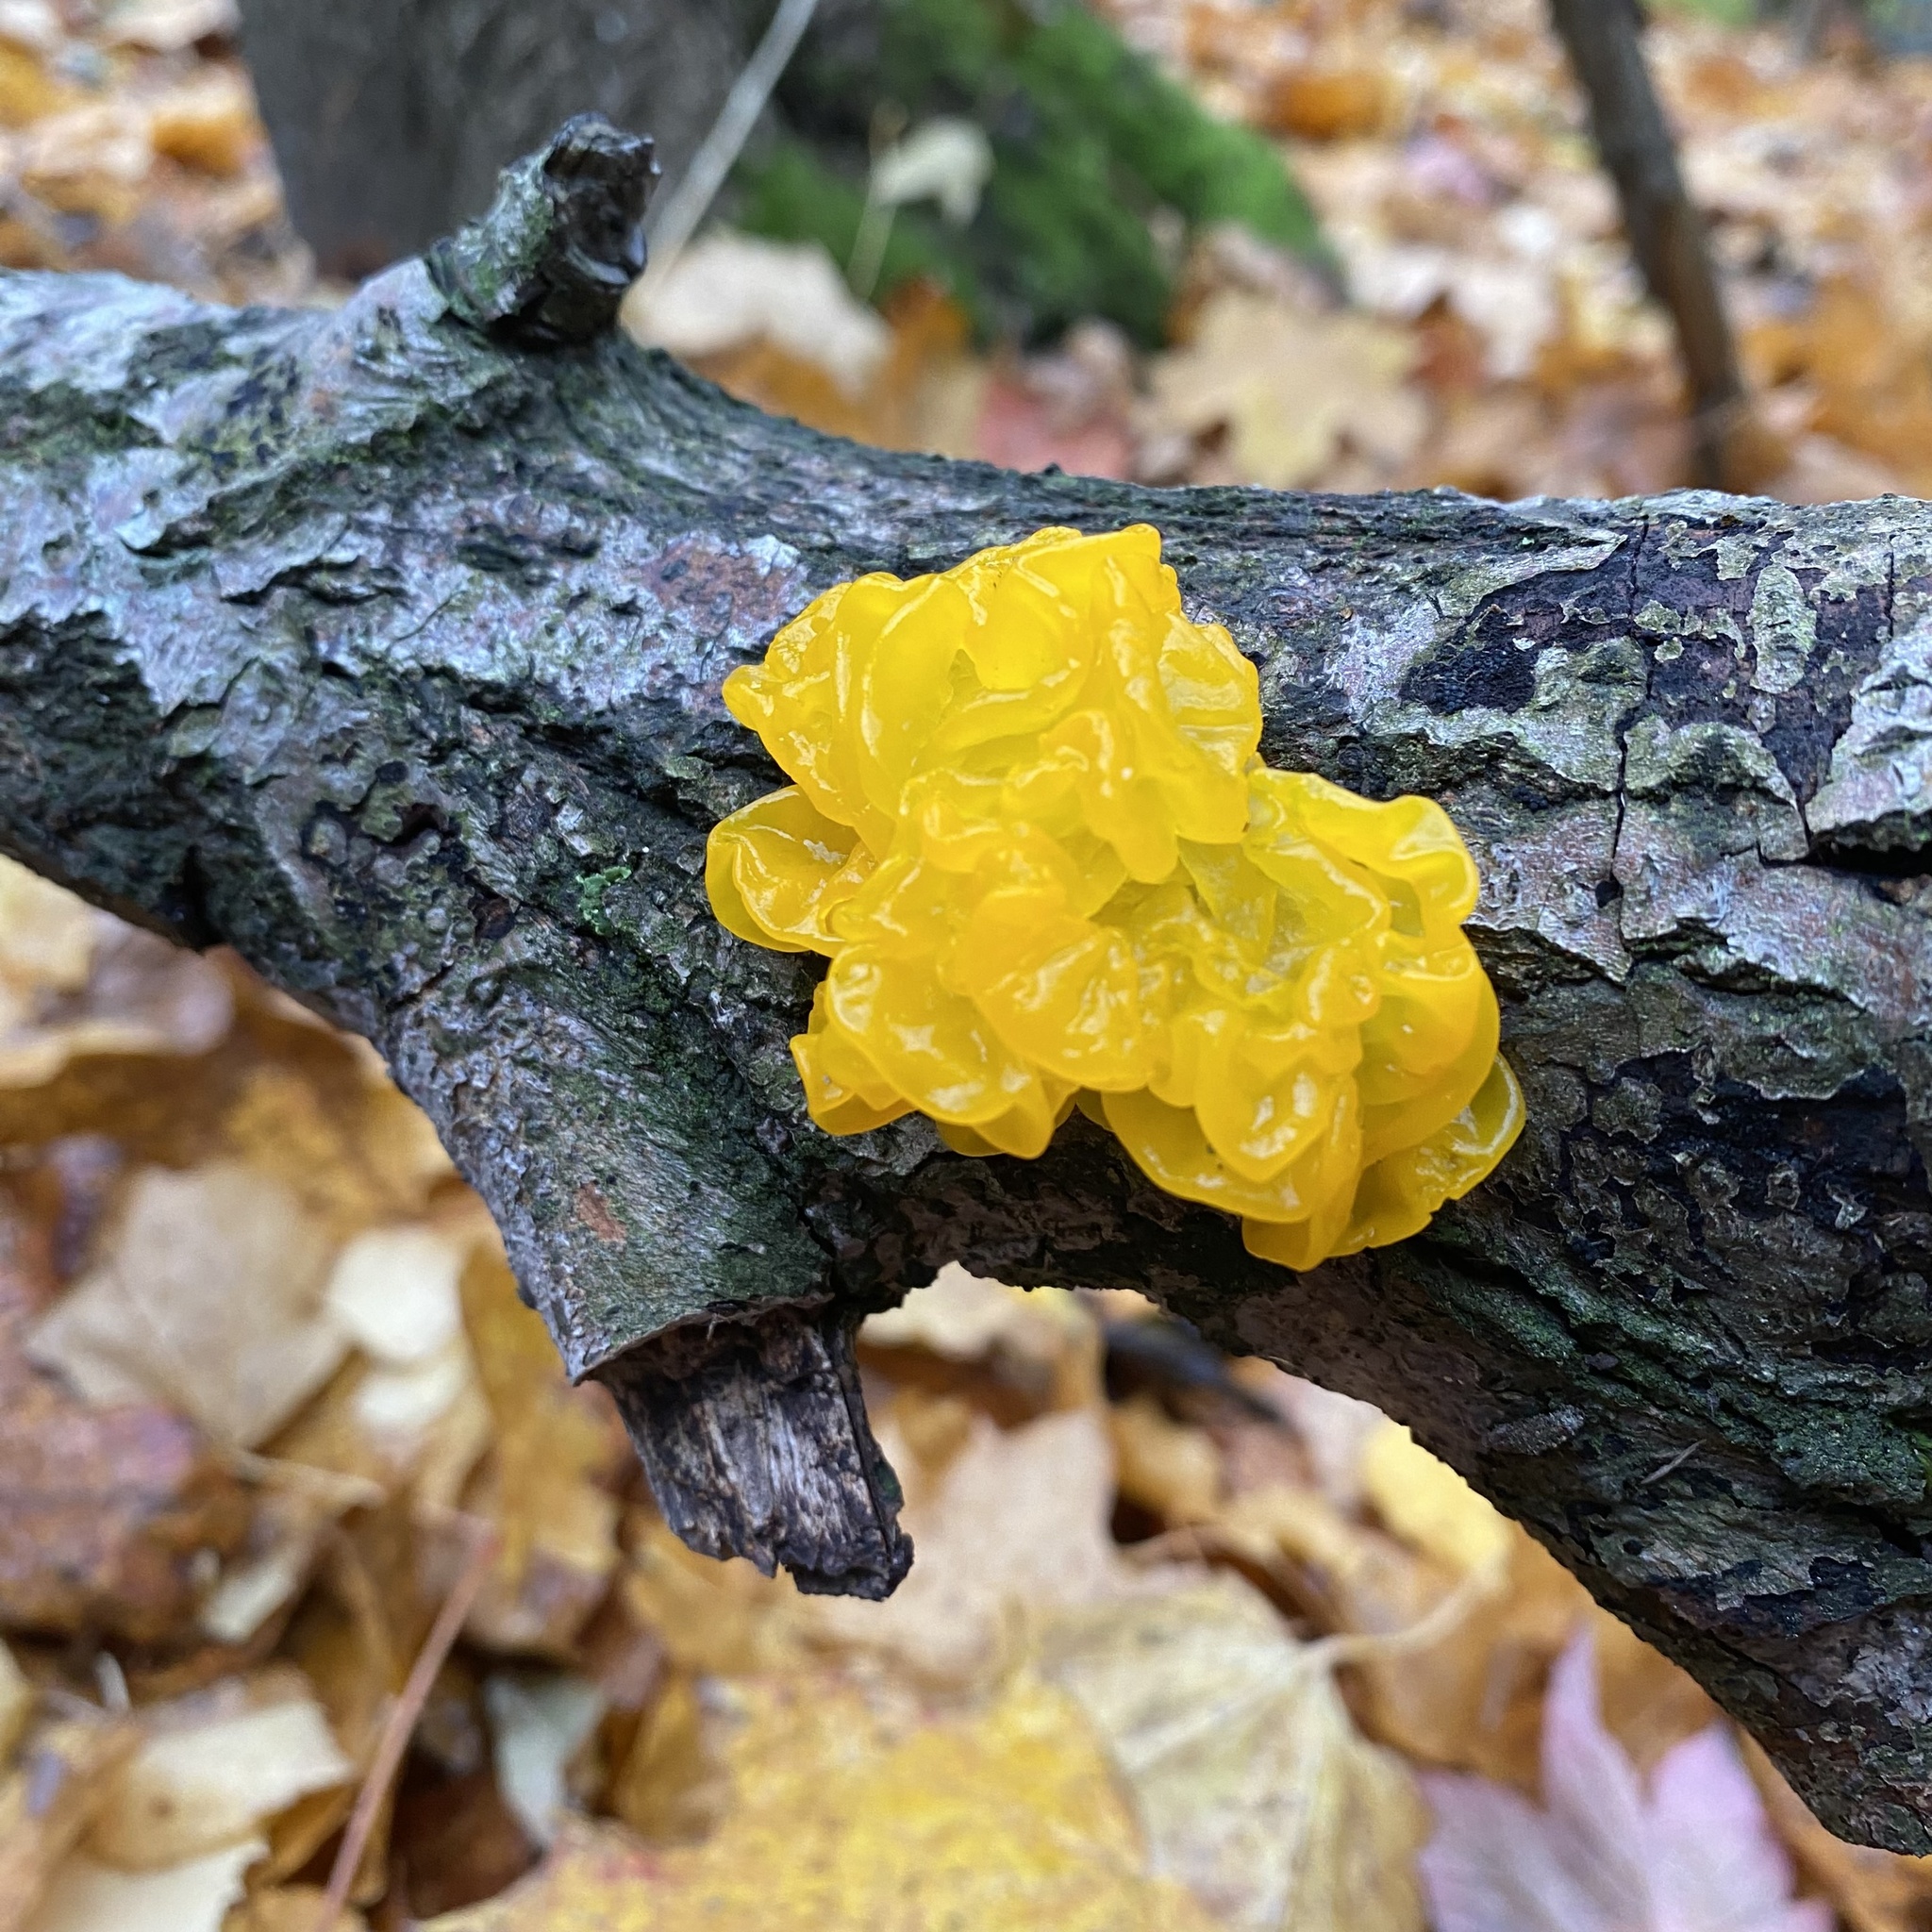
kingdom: Fungi
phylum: Basidiomycota
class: Tremellomycetes
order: Tremellales
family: Tremellaceae
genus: Tremella
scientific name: Tremella mesenterica
